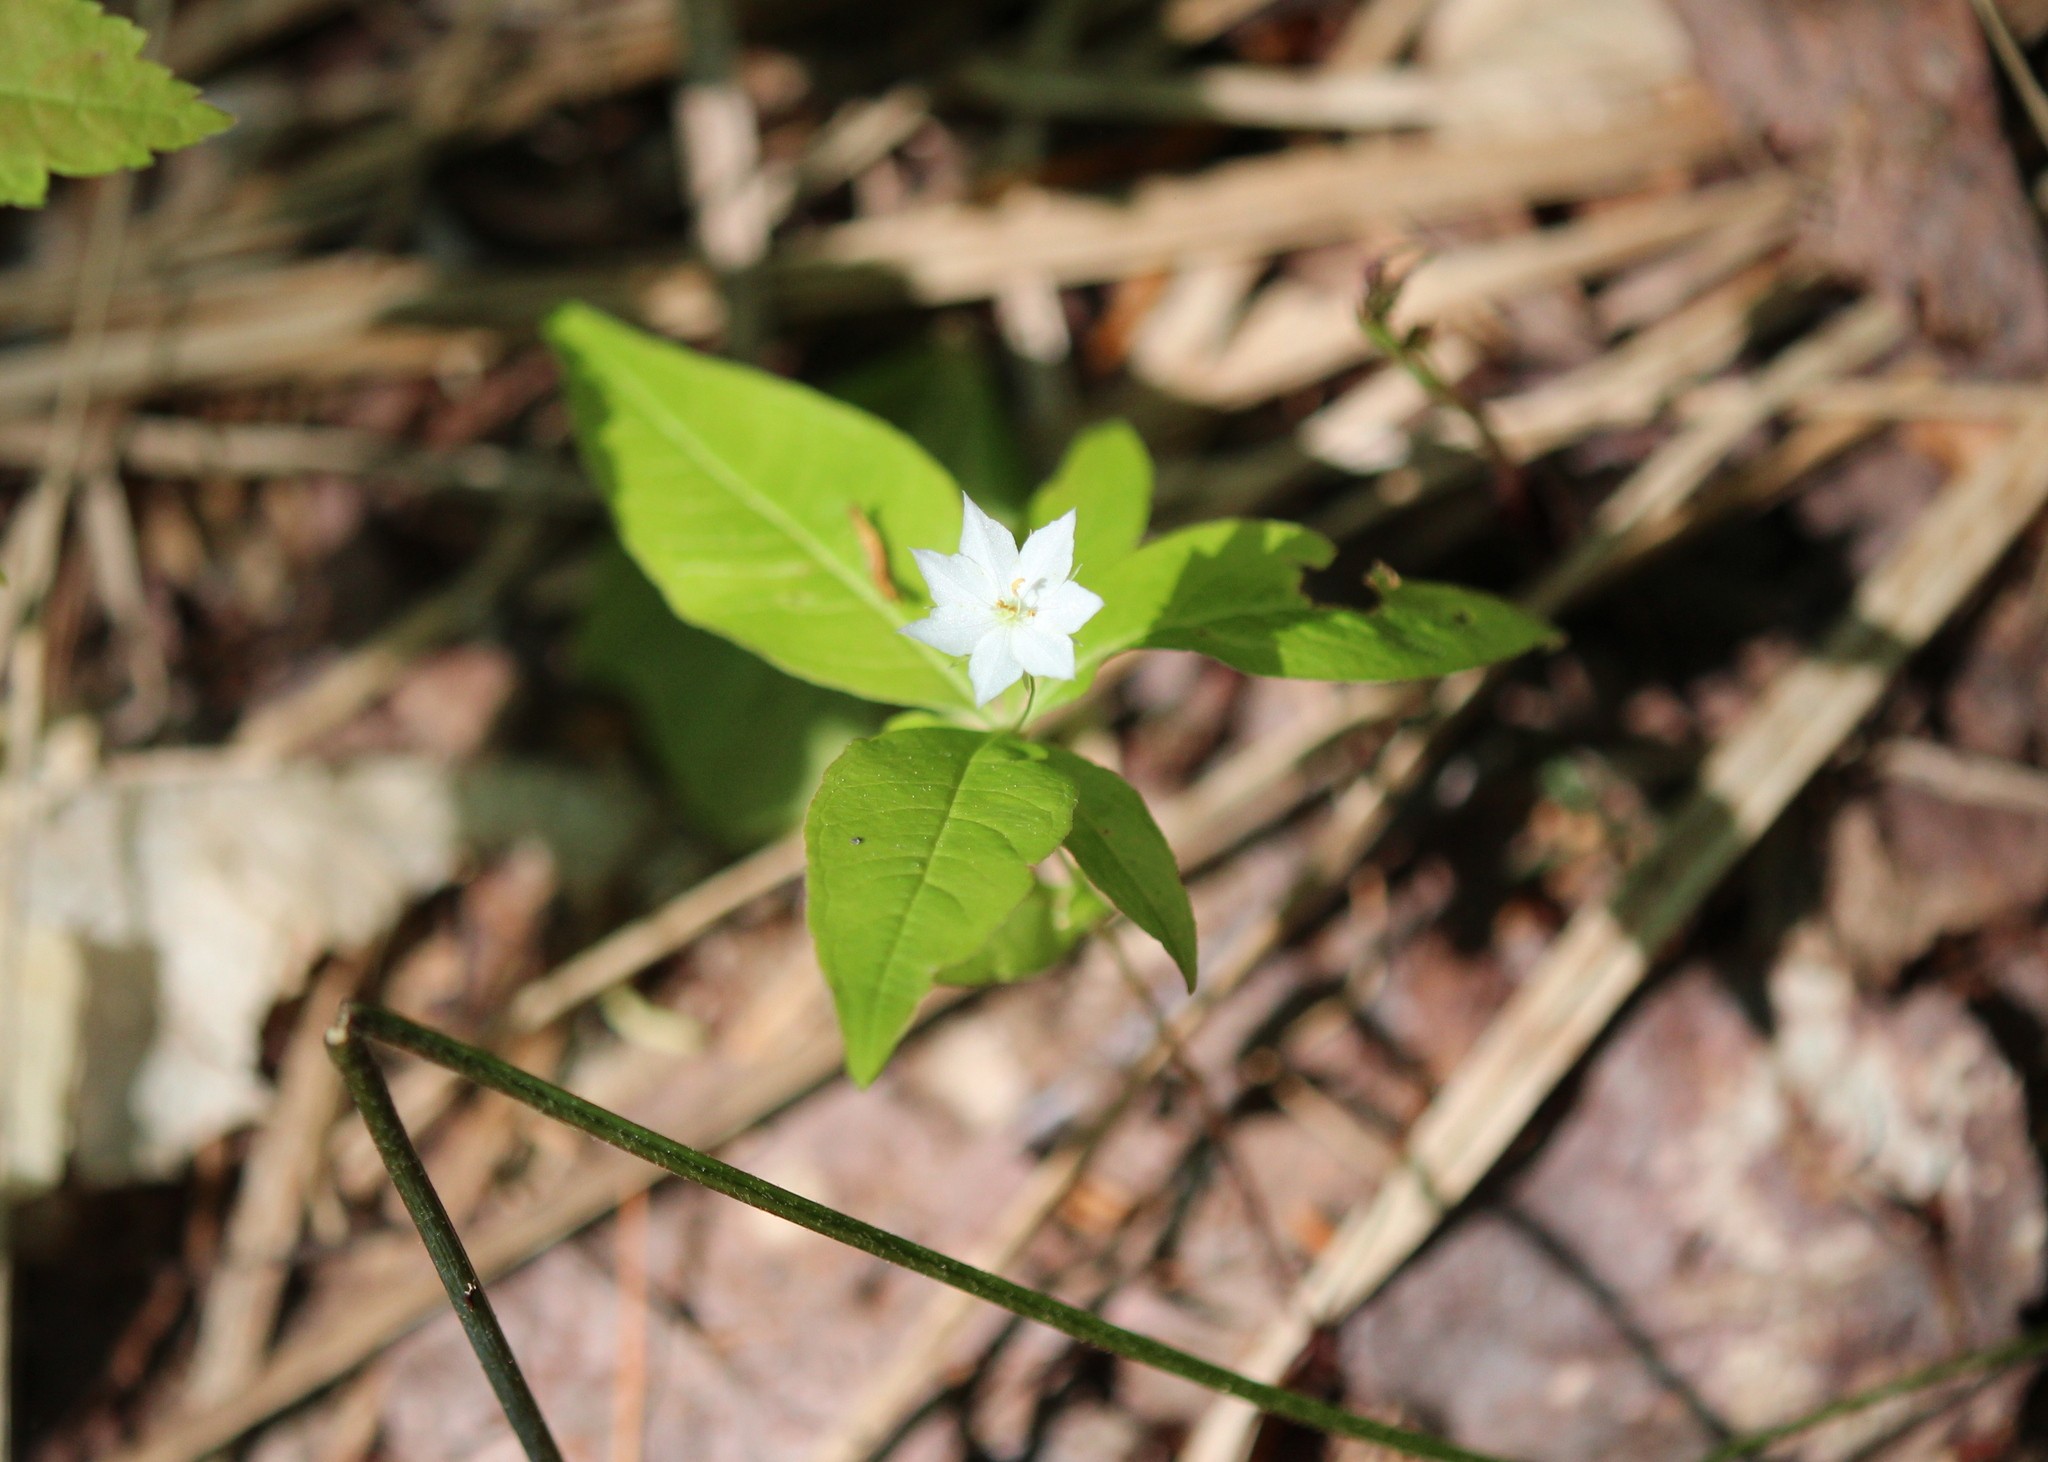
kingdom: Plantae
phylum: Tracheophyta
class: Magnoliopsida
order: Ericales
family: Primulaceae
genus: Lysimachia
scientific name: Lysimachia borealis
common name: American starflower
